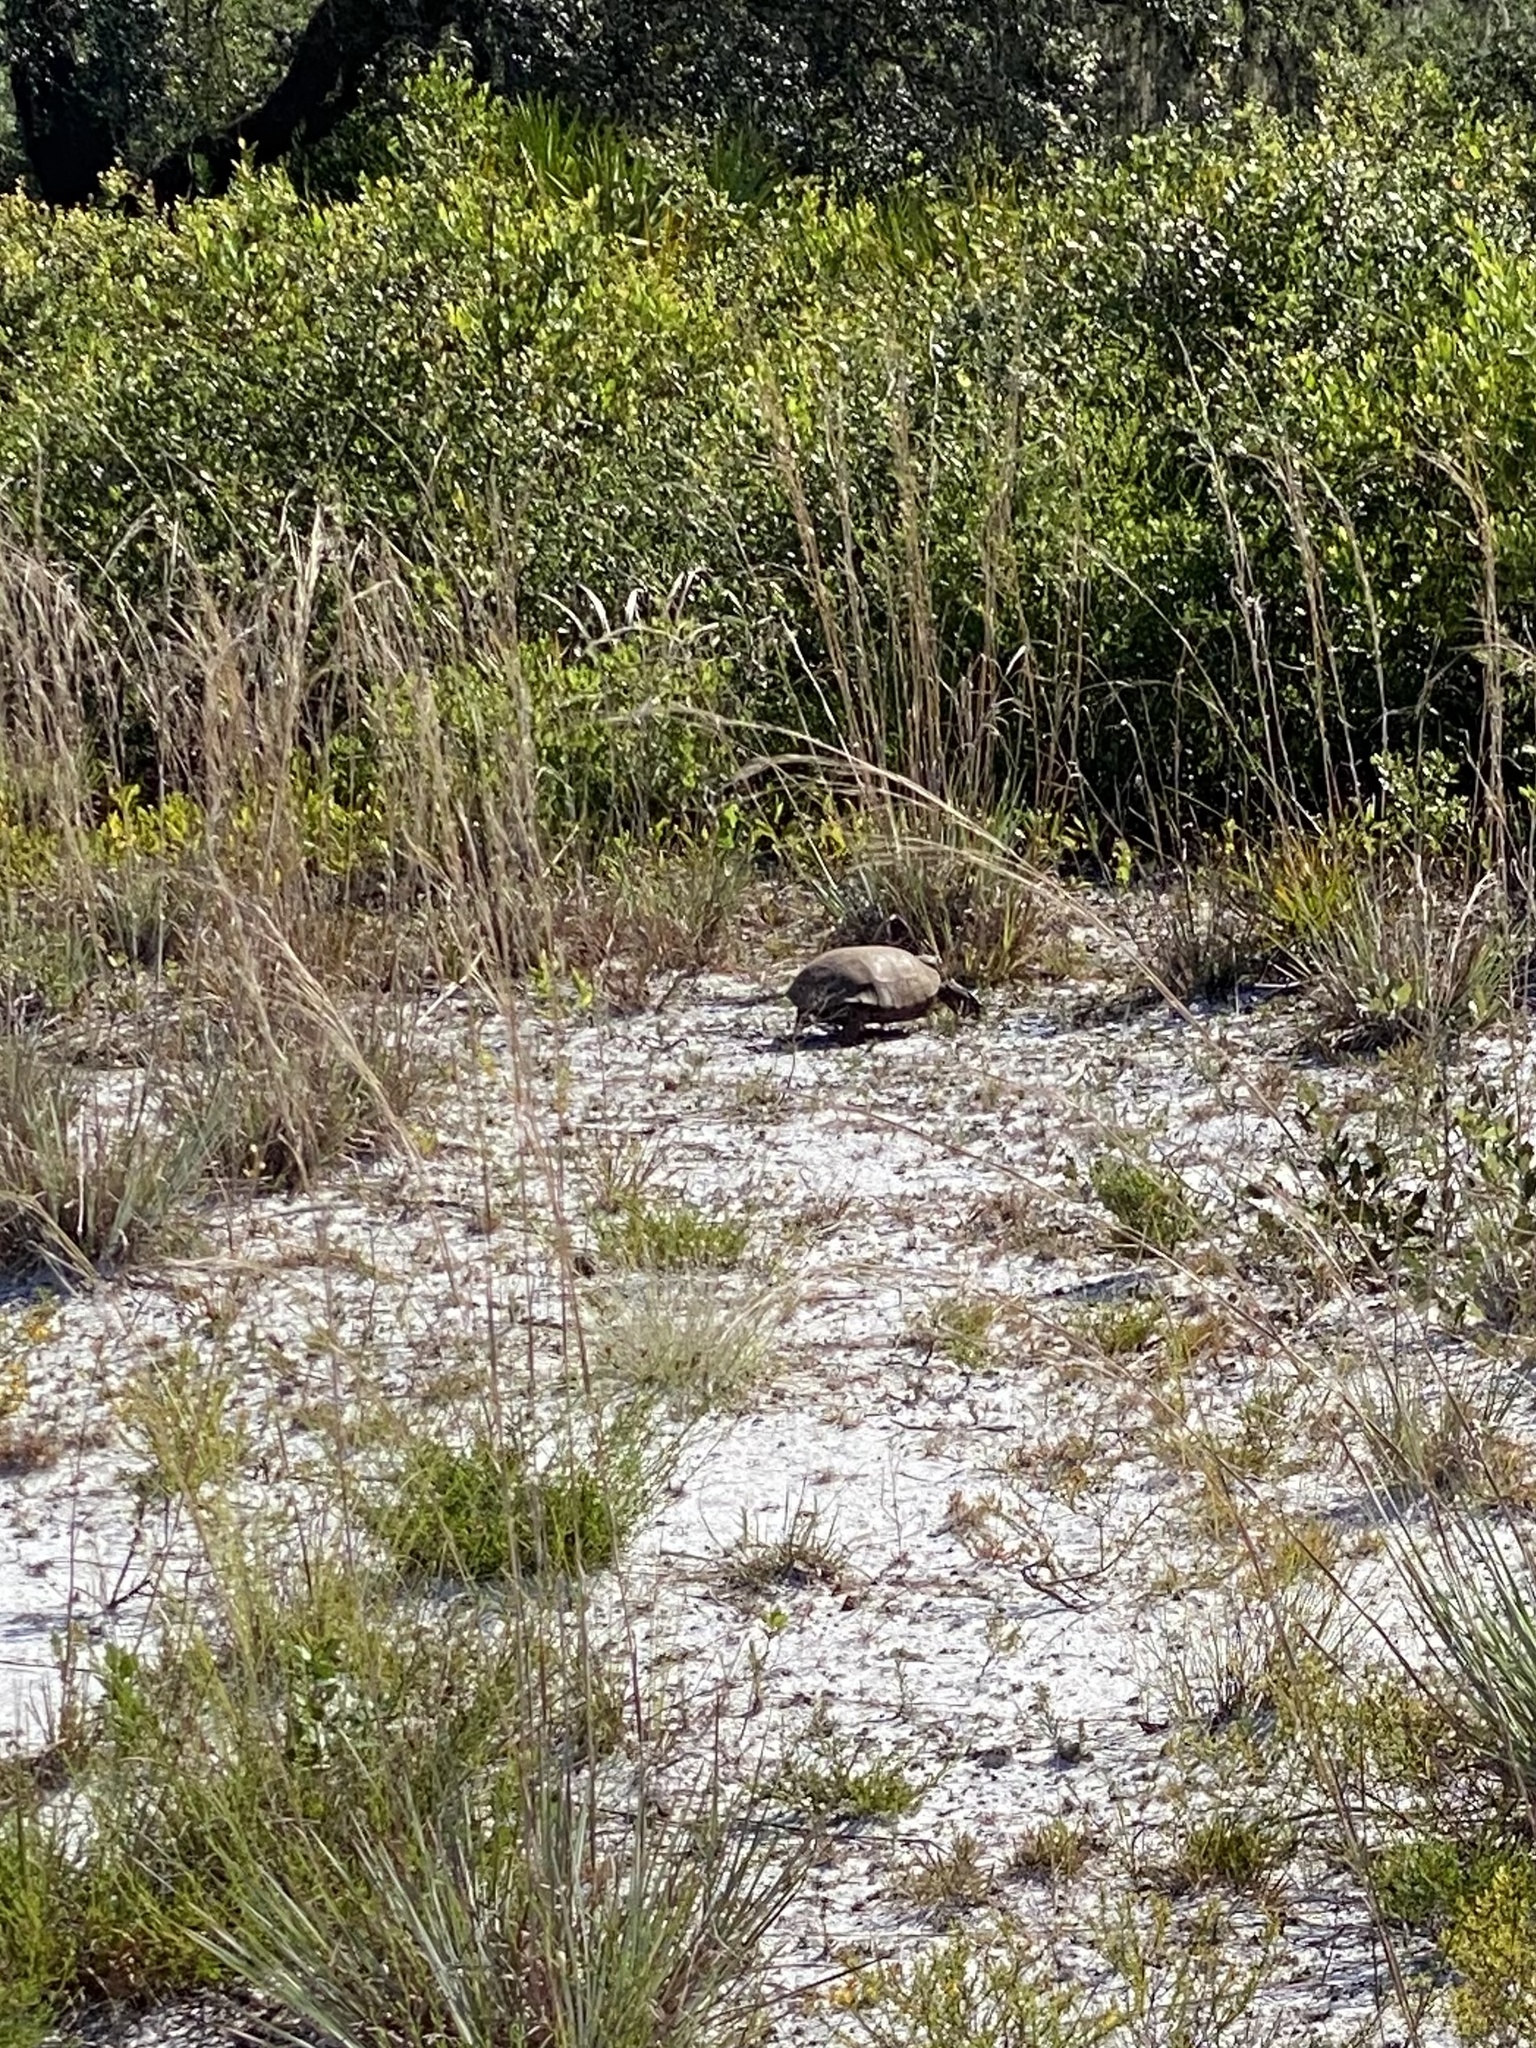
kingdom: Animalia
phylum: Chordata
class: Testudines
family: Testudinidae
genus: Gopherus
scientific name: Gopherus polyphemus
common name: Florida gopher tortoise
